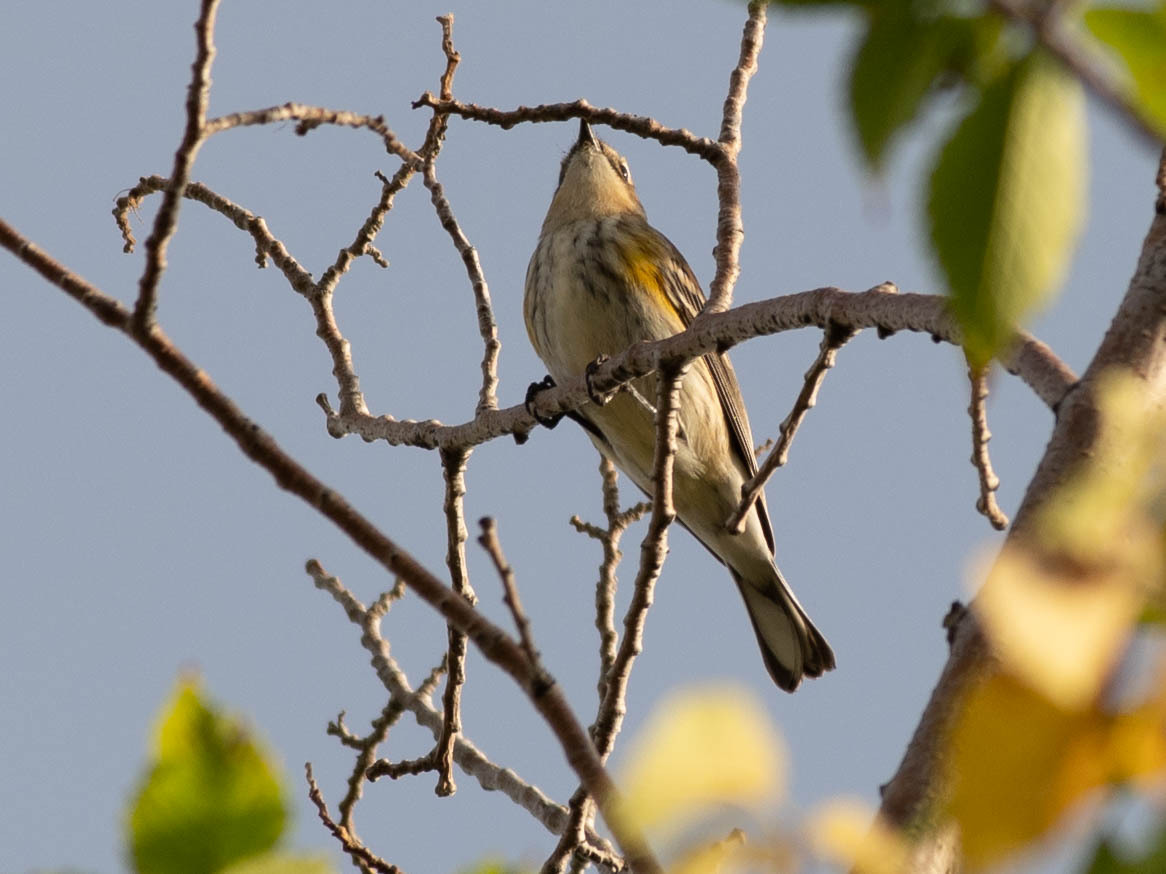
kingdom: Animalia
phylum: Chordata
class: Aves
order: Passeriformes
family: Parulidae
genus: Setophaga
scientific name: Setophaga coronata
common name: Myrtle warbler
